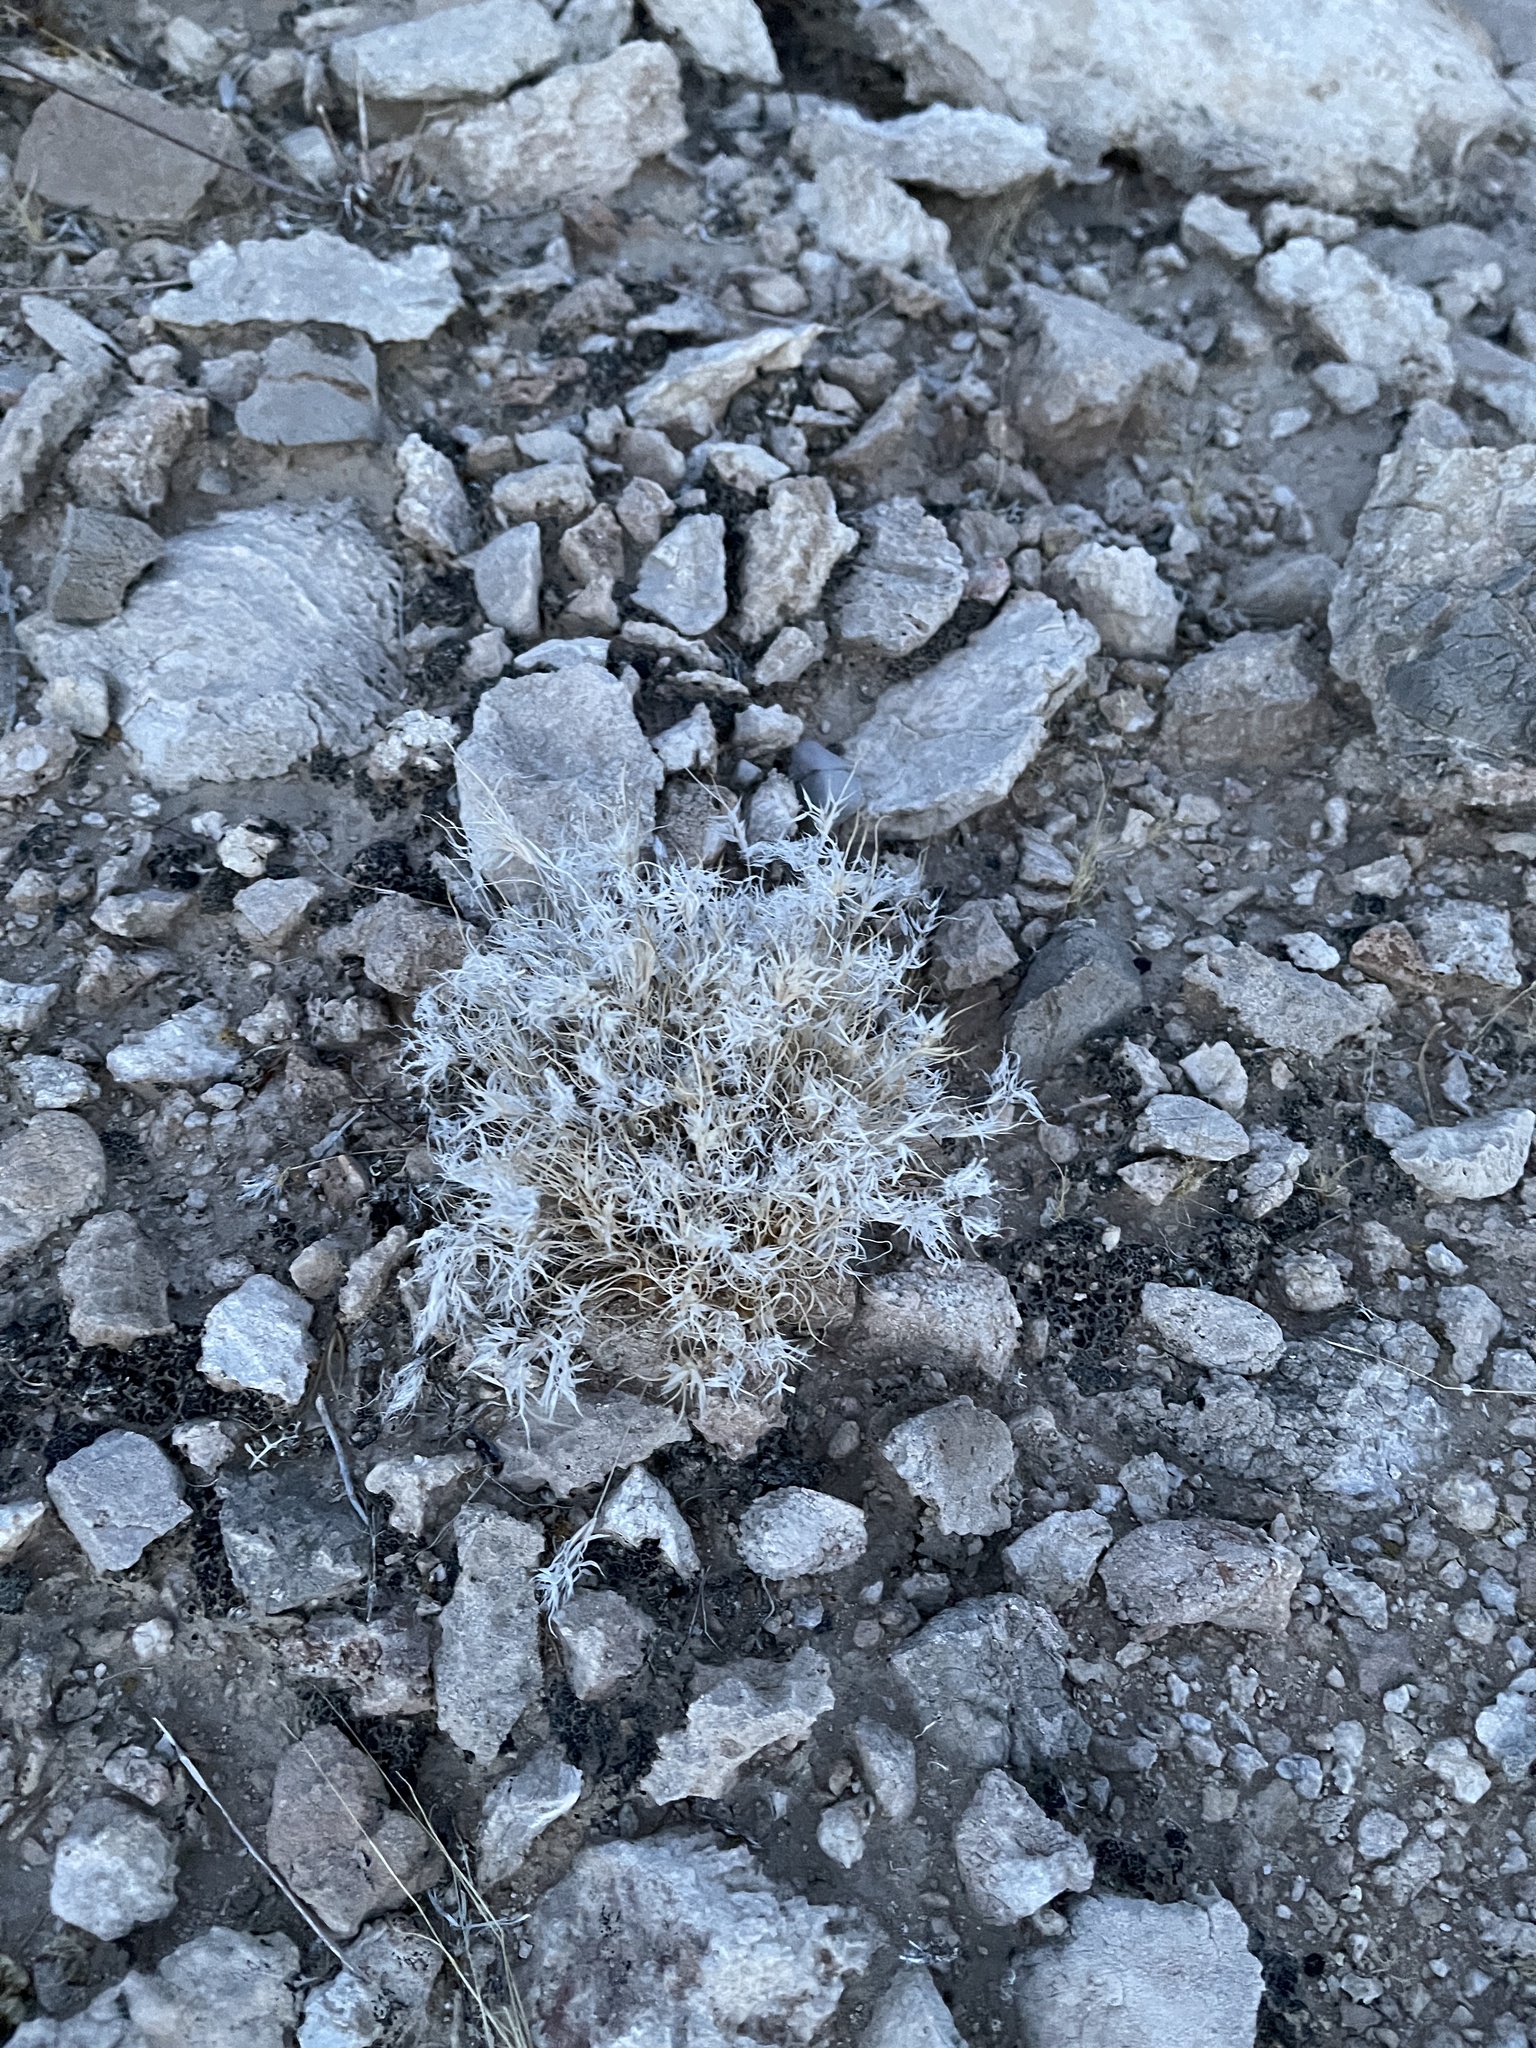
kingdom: Plantae
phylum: Tracheophyta
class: Liliopsida
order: Poales
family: Poaceae
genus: Dasyochloa
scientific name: Dasyochloa pulchella
